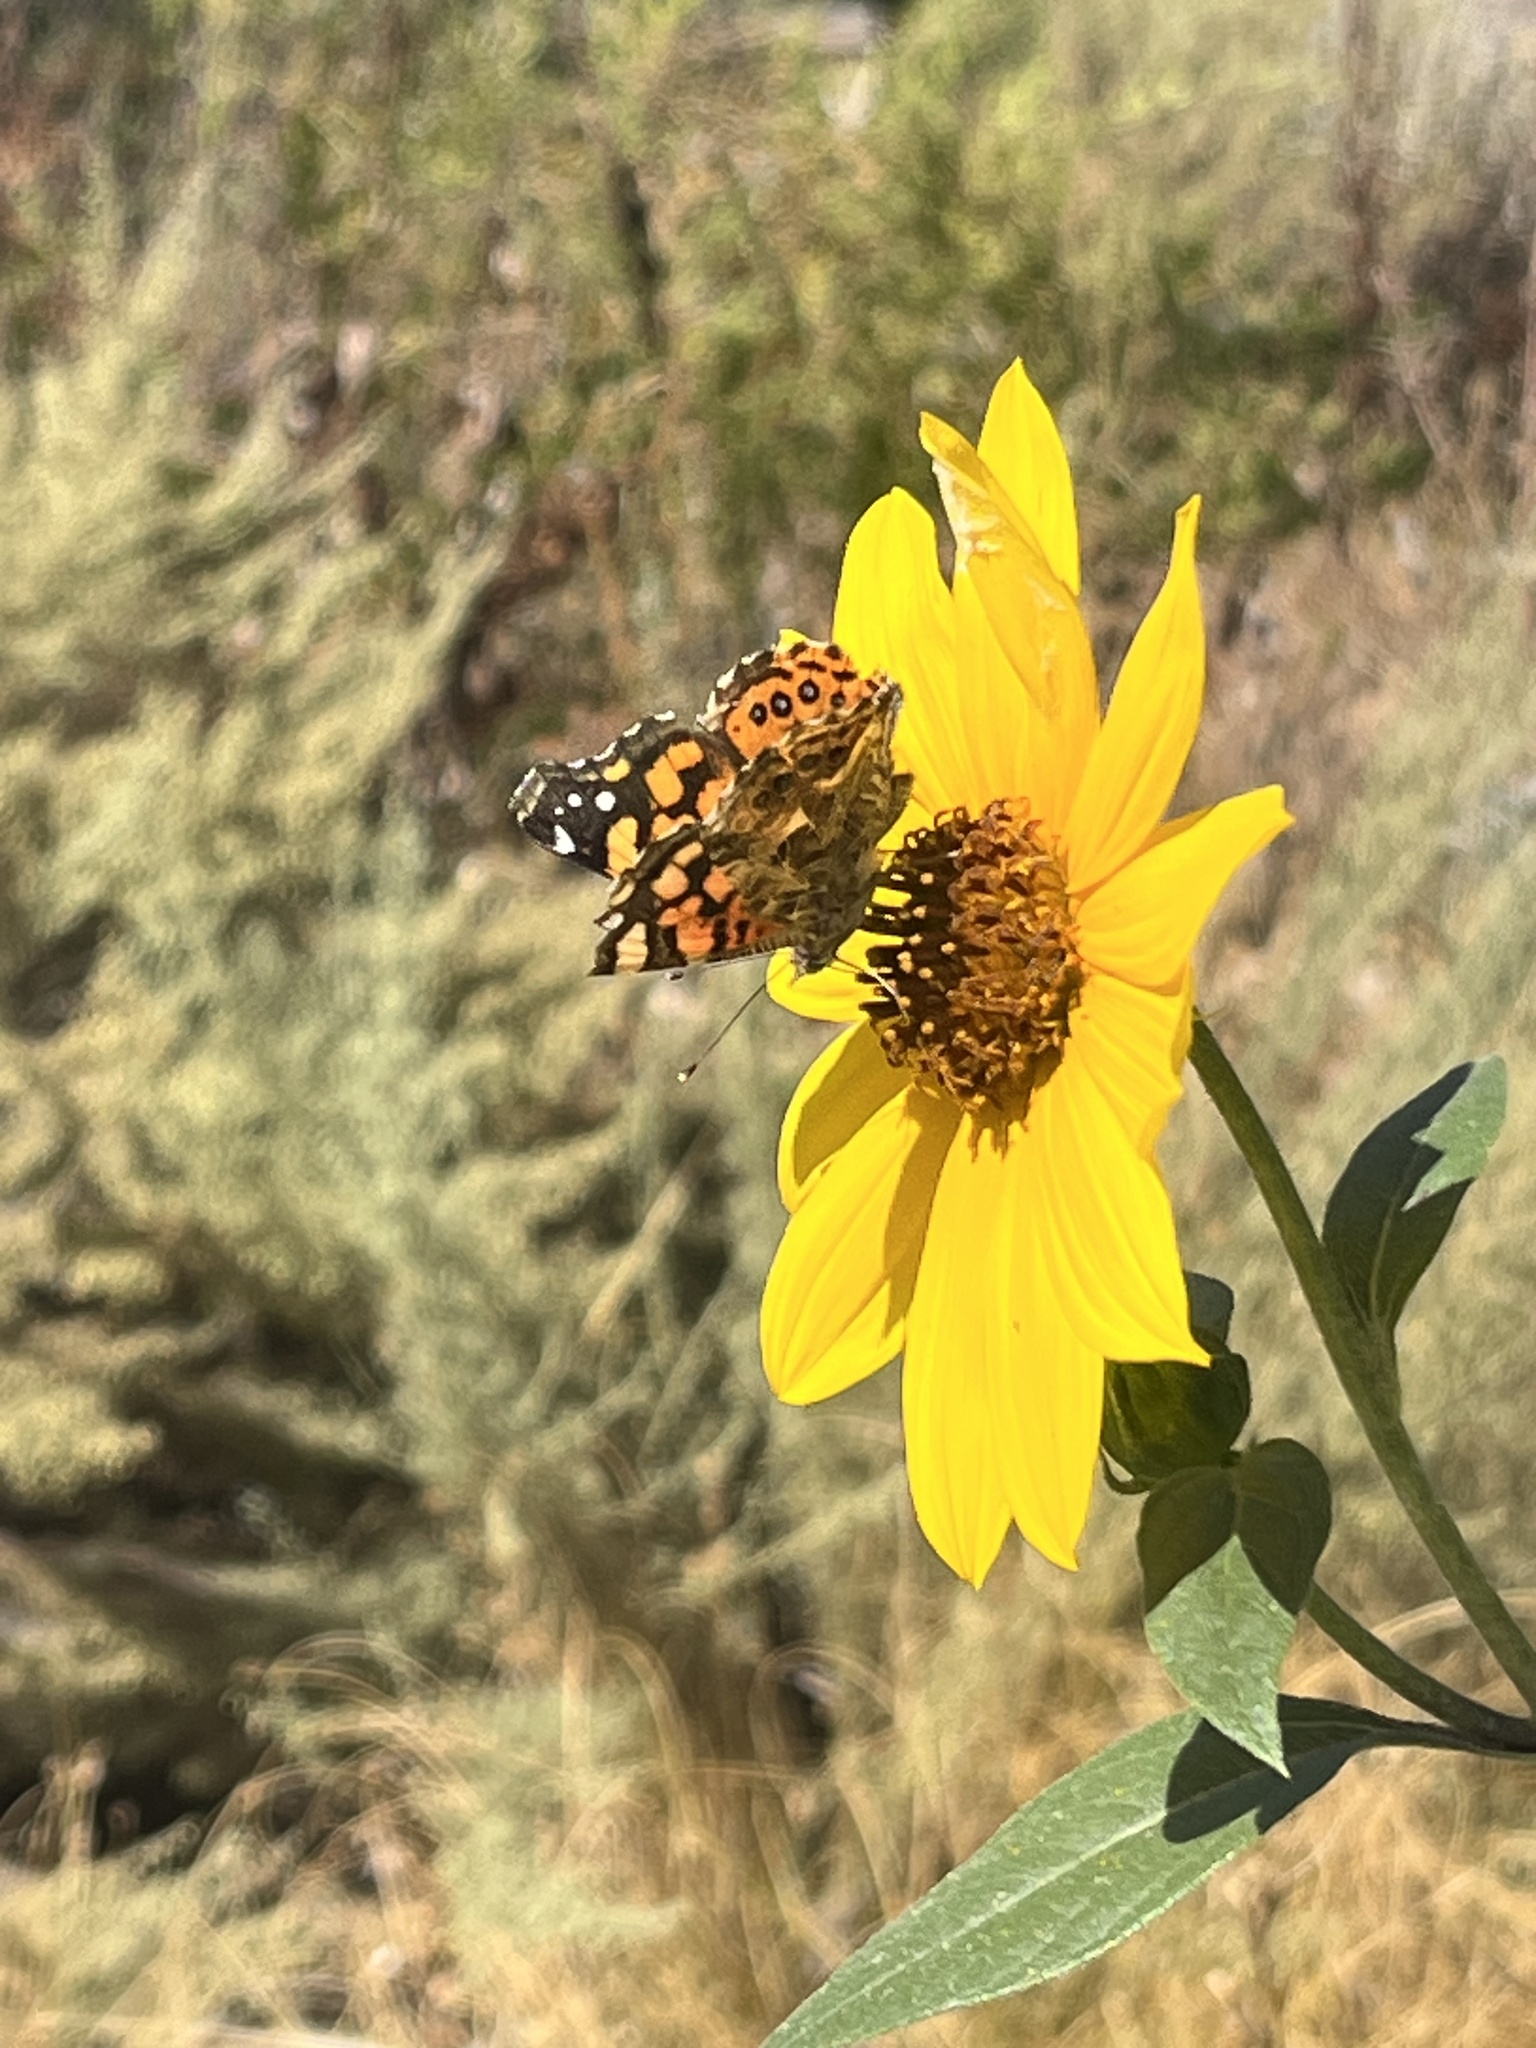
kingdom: Animalia
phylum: Arthropoda
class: Insecta
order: Lepidoptera
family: Nymphalidae
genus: Vanessa
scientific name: Vanessa annabella
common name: West coast lady
